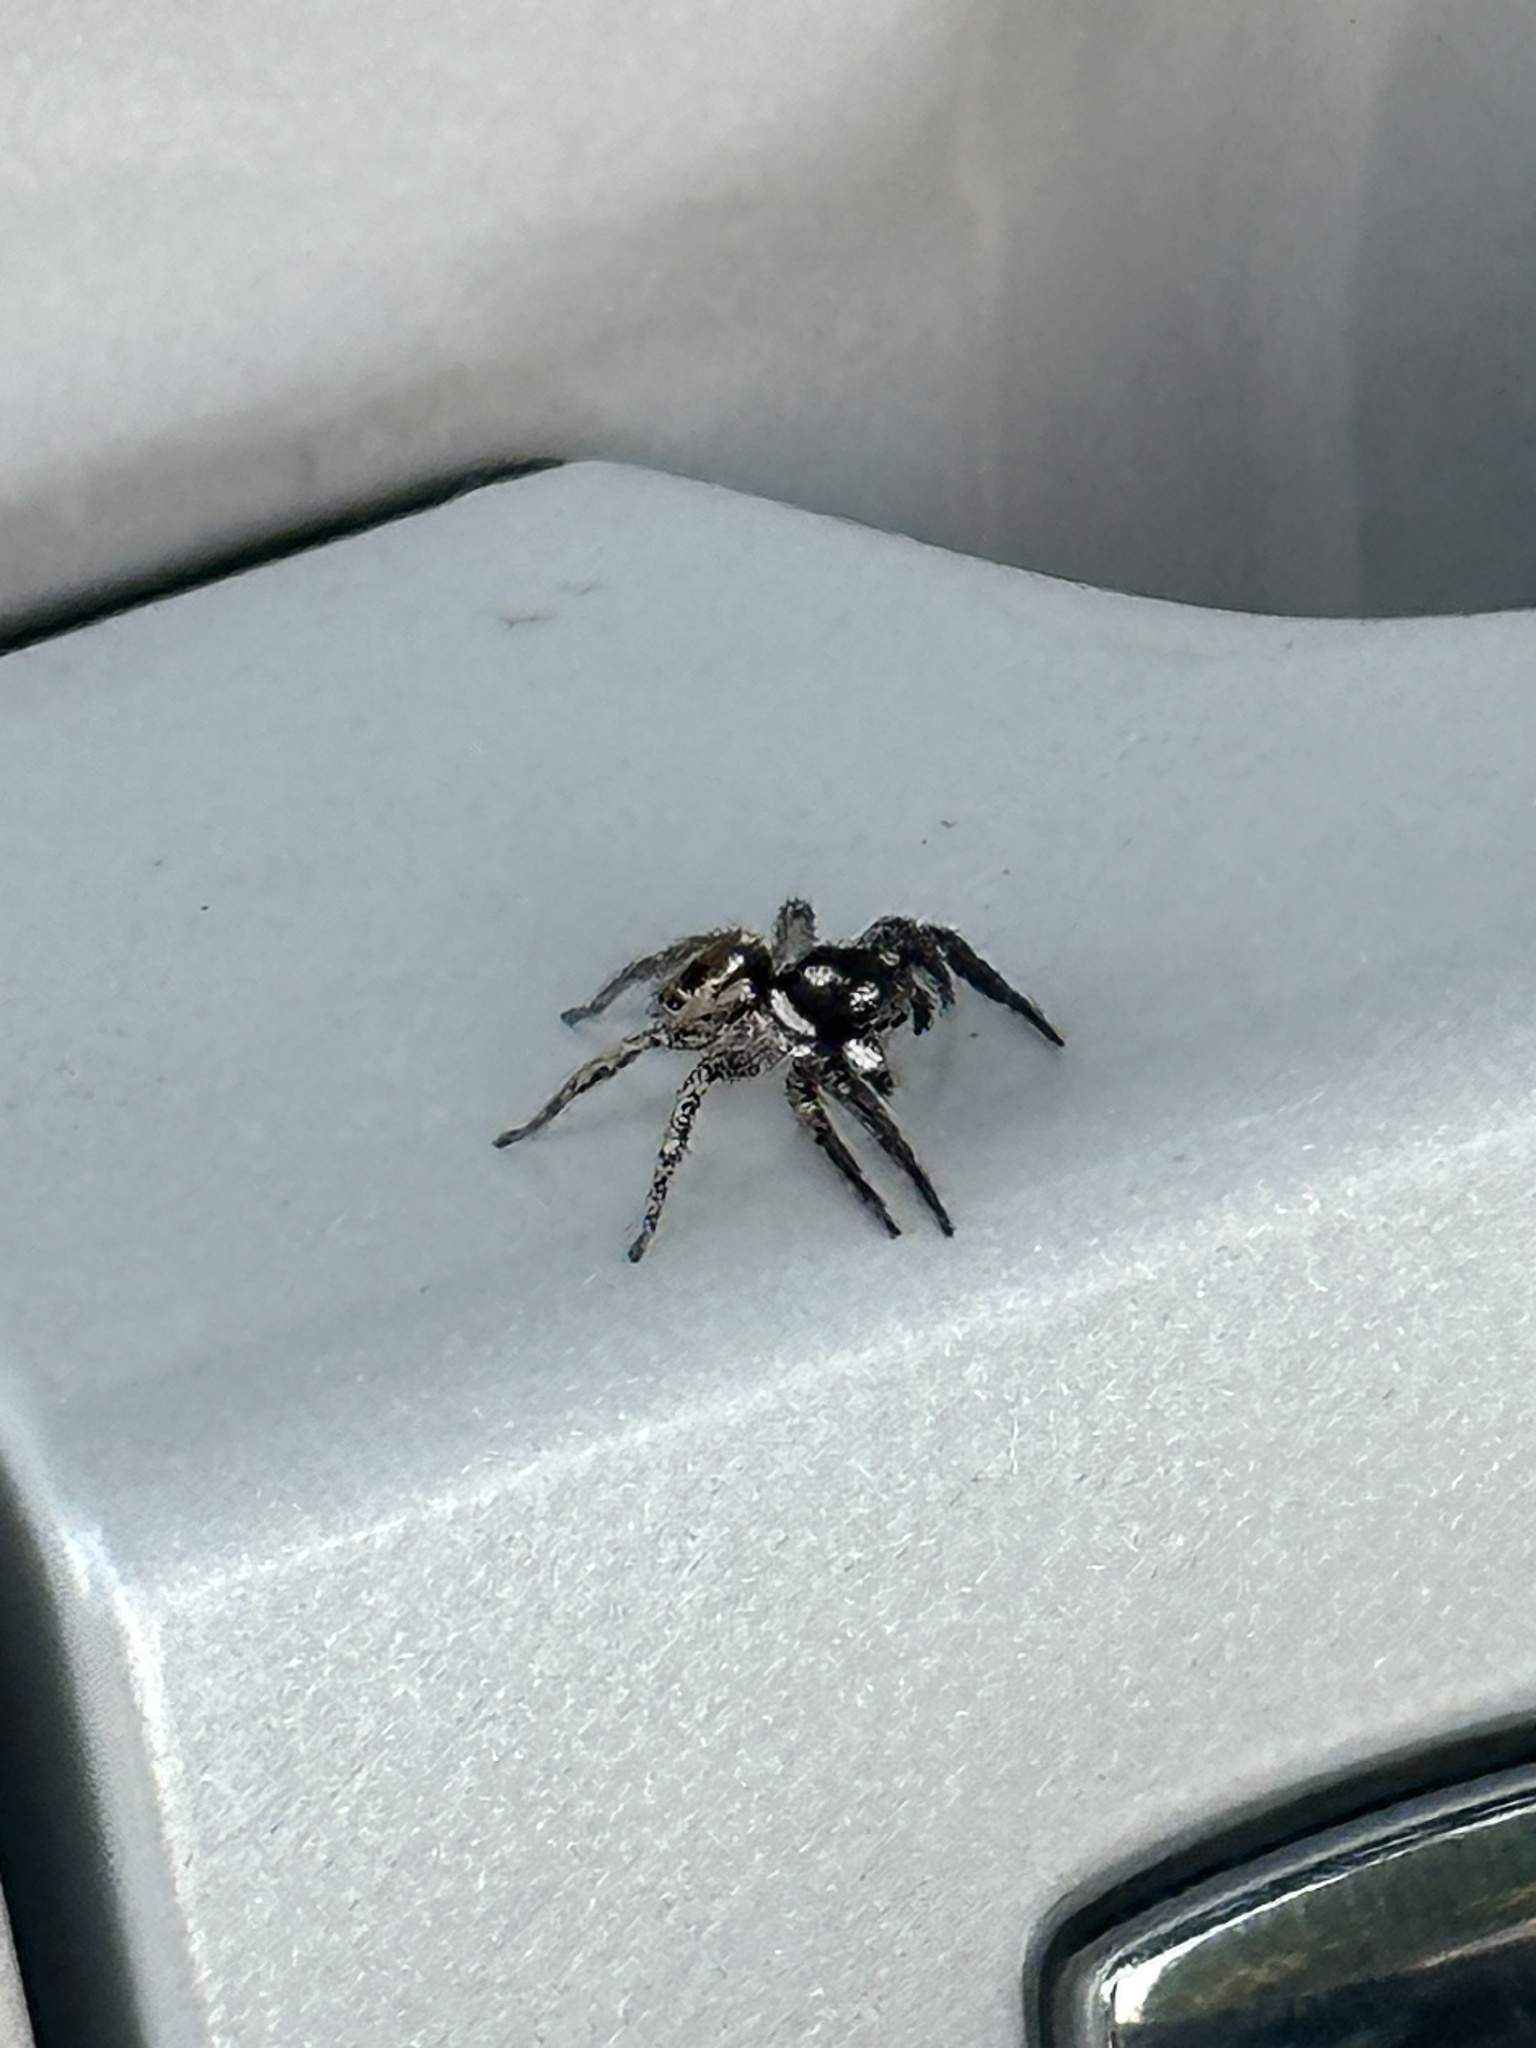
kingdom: Animalia
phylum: Arthropoda
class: Arachnida
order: Araneae
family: Salticidae
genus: Anasaitis
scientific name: Anasaitis canosa
